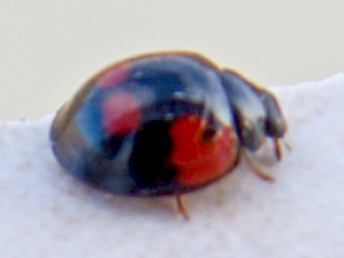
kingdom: Animalia
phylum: Arthropoda
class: Insecta
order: Coleoptera
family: Coccinellidae
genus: Brumus
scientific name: Brumus quadripustulatus
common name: Ladybird beetle
